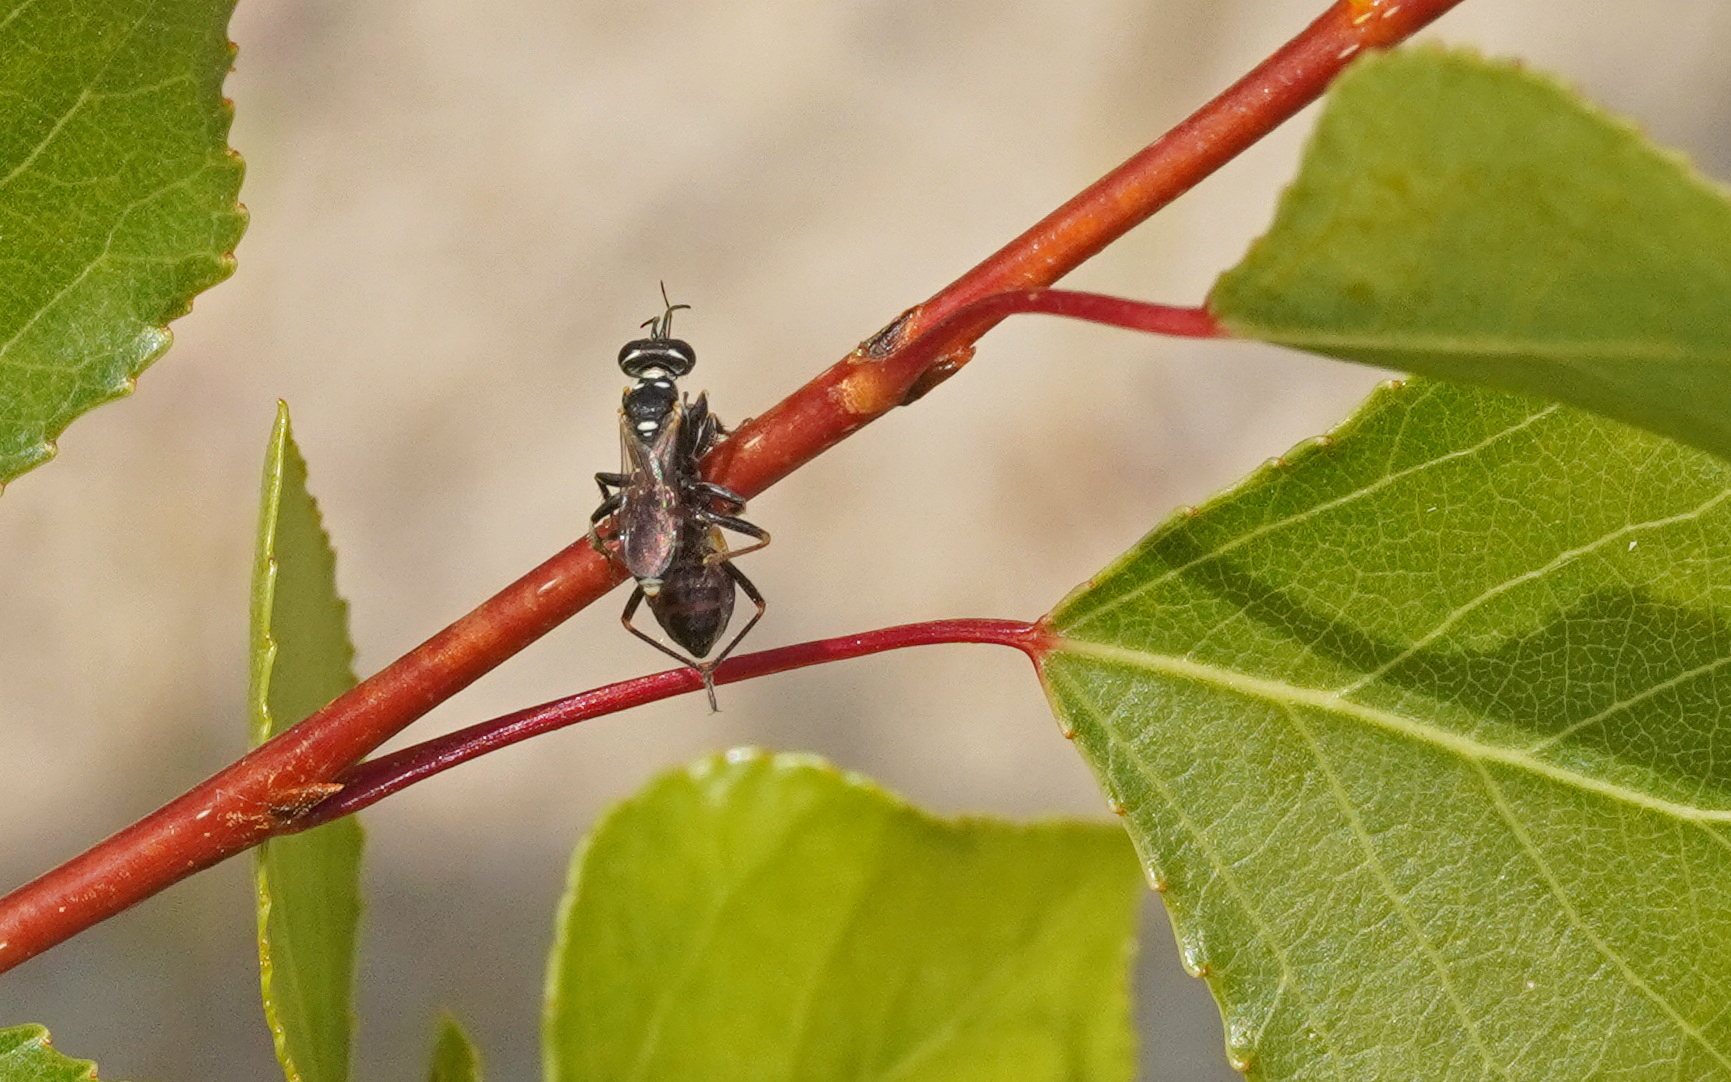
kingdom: Animalia
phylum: Arthropoda
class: Insecta
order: Hymenoptera
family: Crabronidae
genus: Dinetus
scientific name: Dinetus pictus
